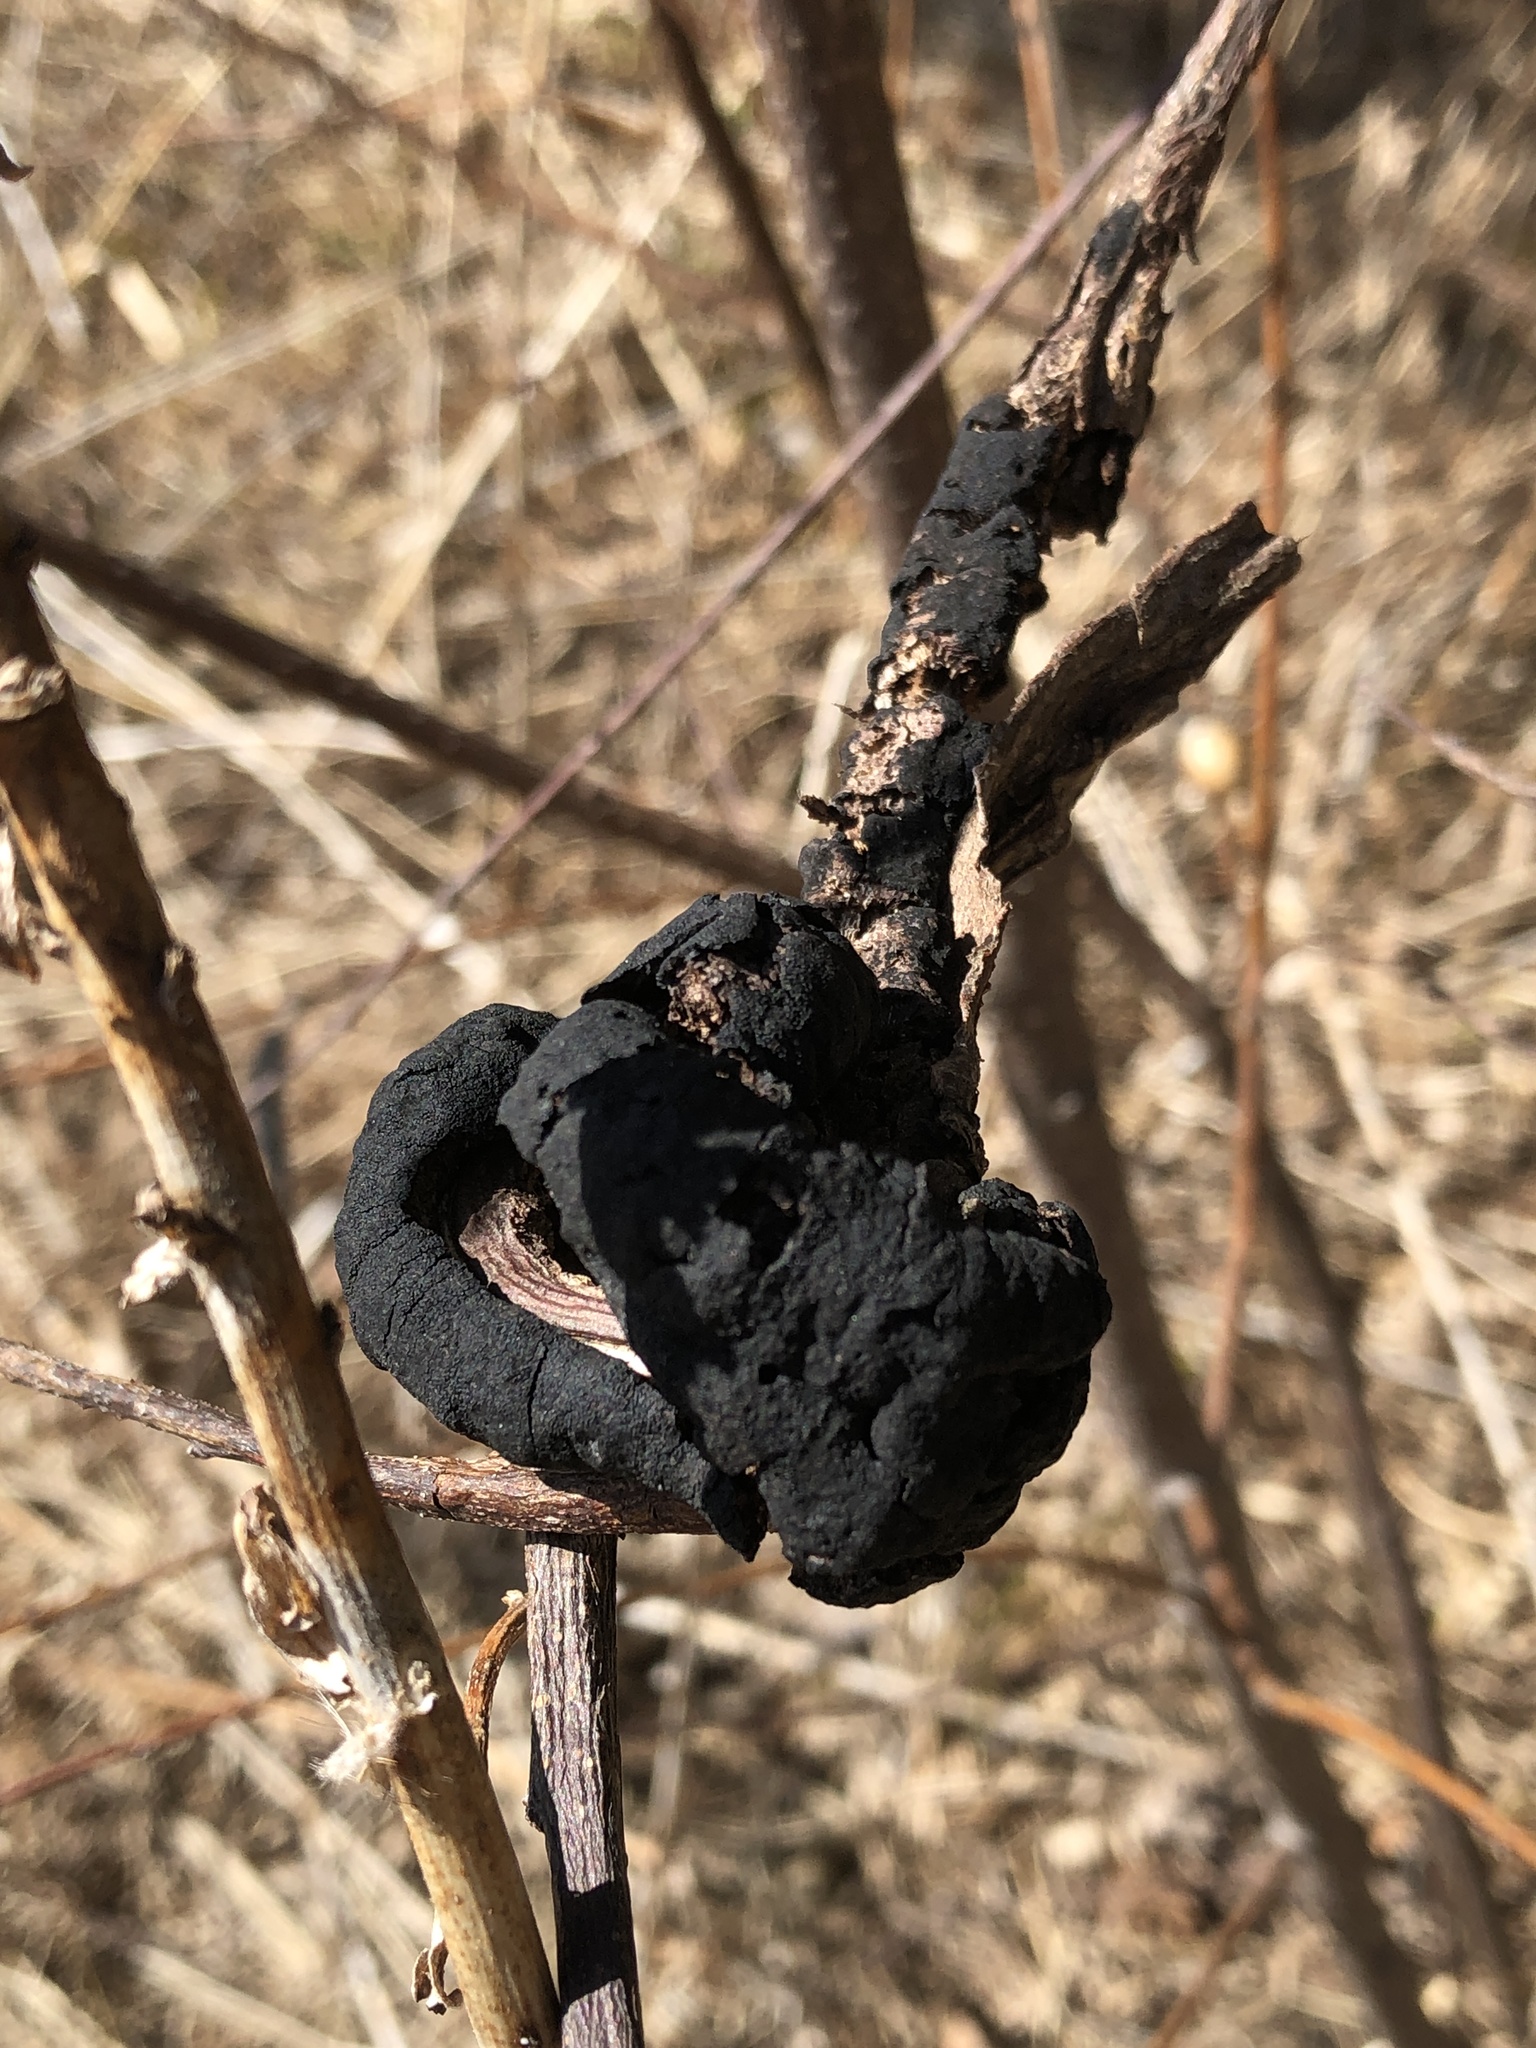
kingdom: Fungi
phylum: Ascomycota
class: Dothideomycetes
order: Venturiales
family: Venturiaceae
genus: Apiosporina
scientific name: Apiosporina morbosa
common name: Black knot
